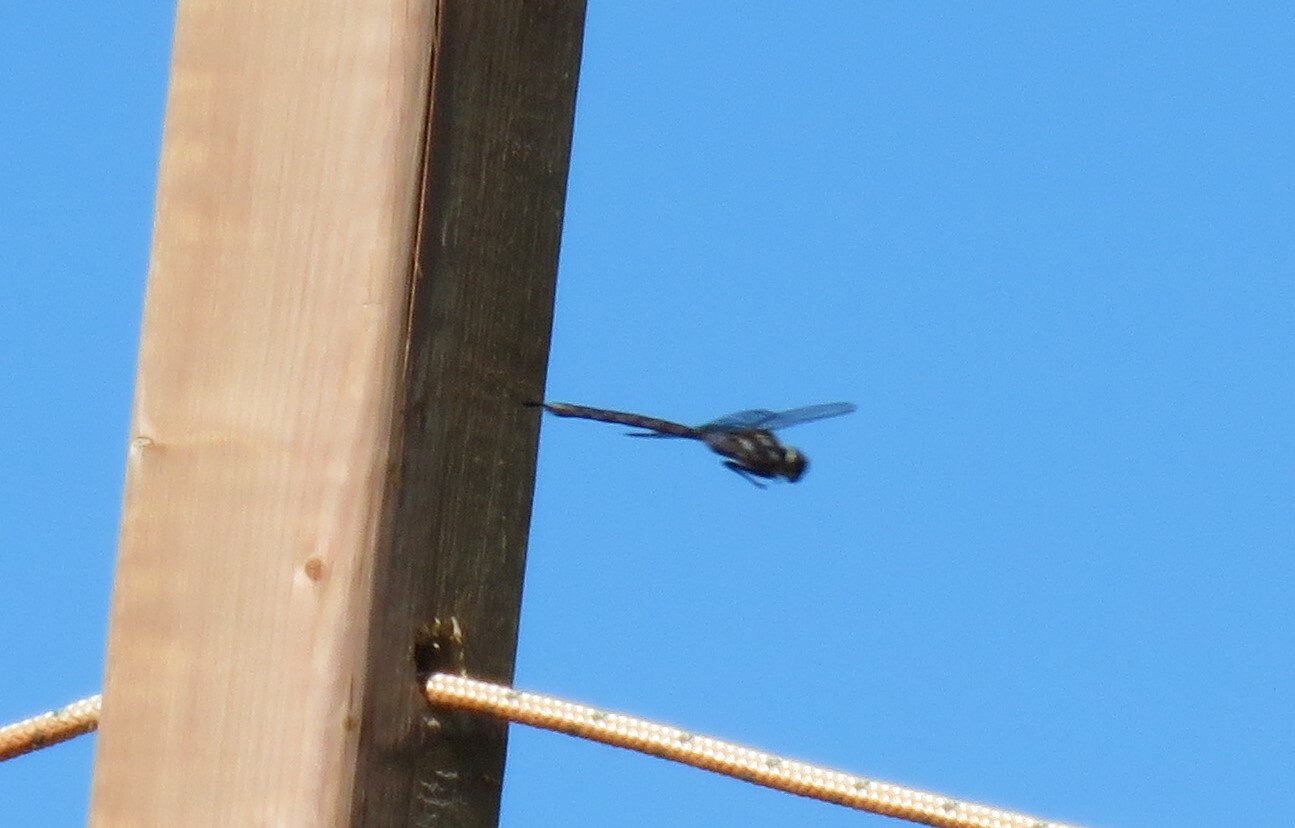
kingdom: Animalia
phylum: Arthropoda
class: Insecta
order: Odonata
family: Aeshnidae
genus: Aeshna
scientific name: Aeshna interrupta
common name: Variable darner
